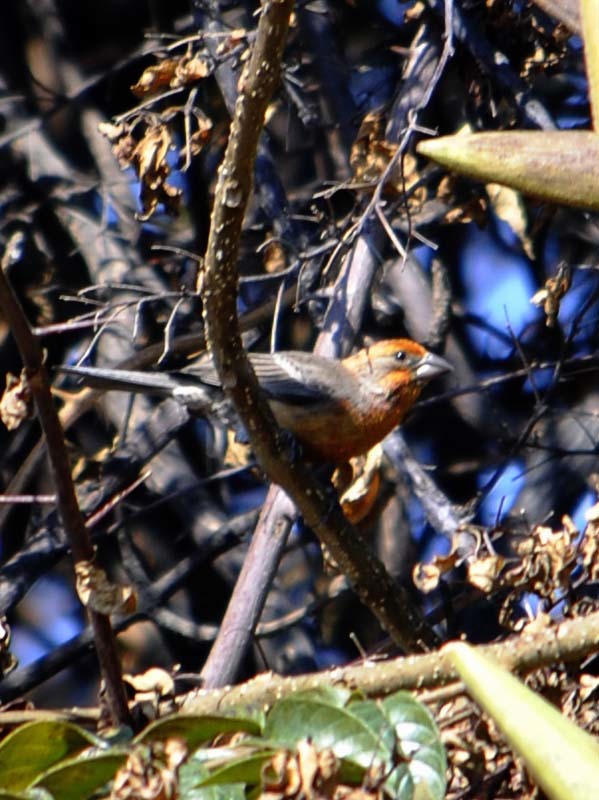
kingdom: Animalia
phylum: Chordata
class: Aves
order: Passeriformes
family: Fringillidae
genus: Haemorhous
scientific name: Haemorhous mexicanus
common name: House finch
